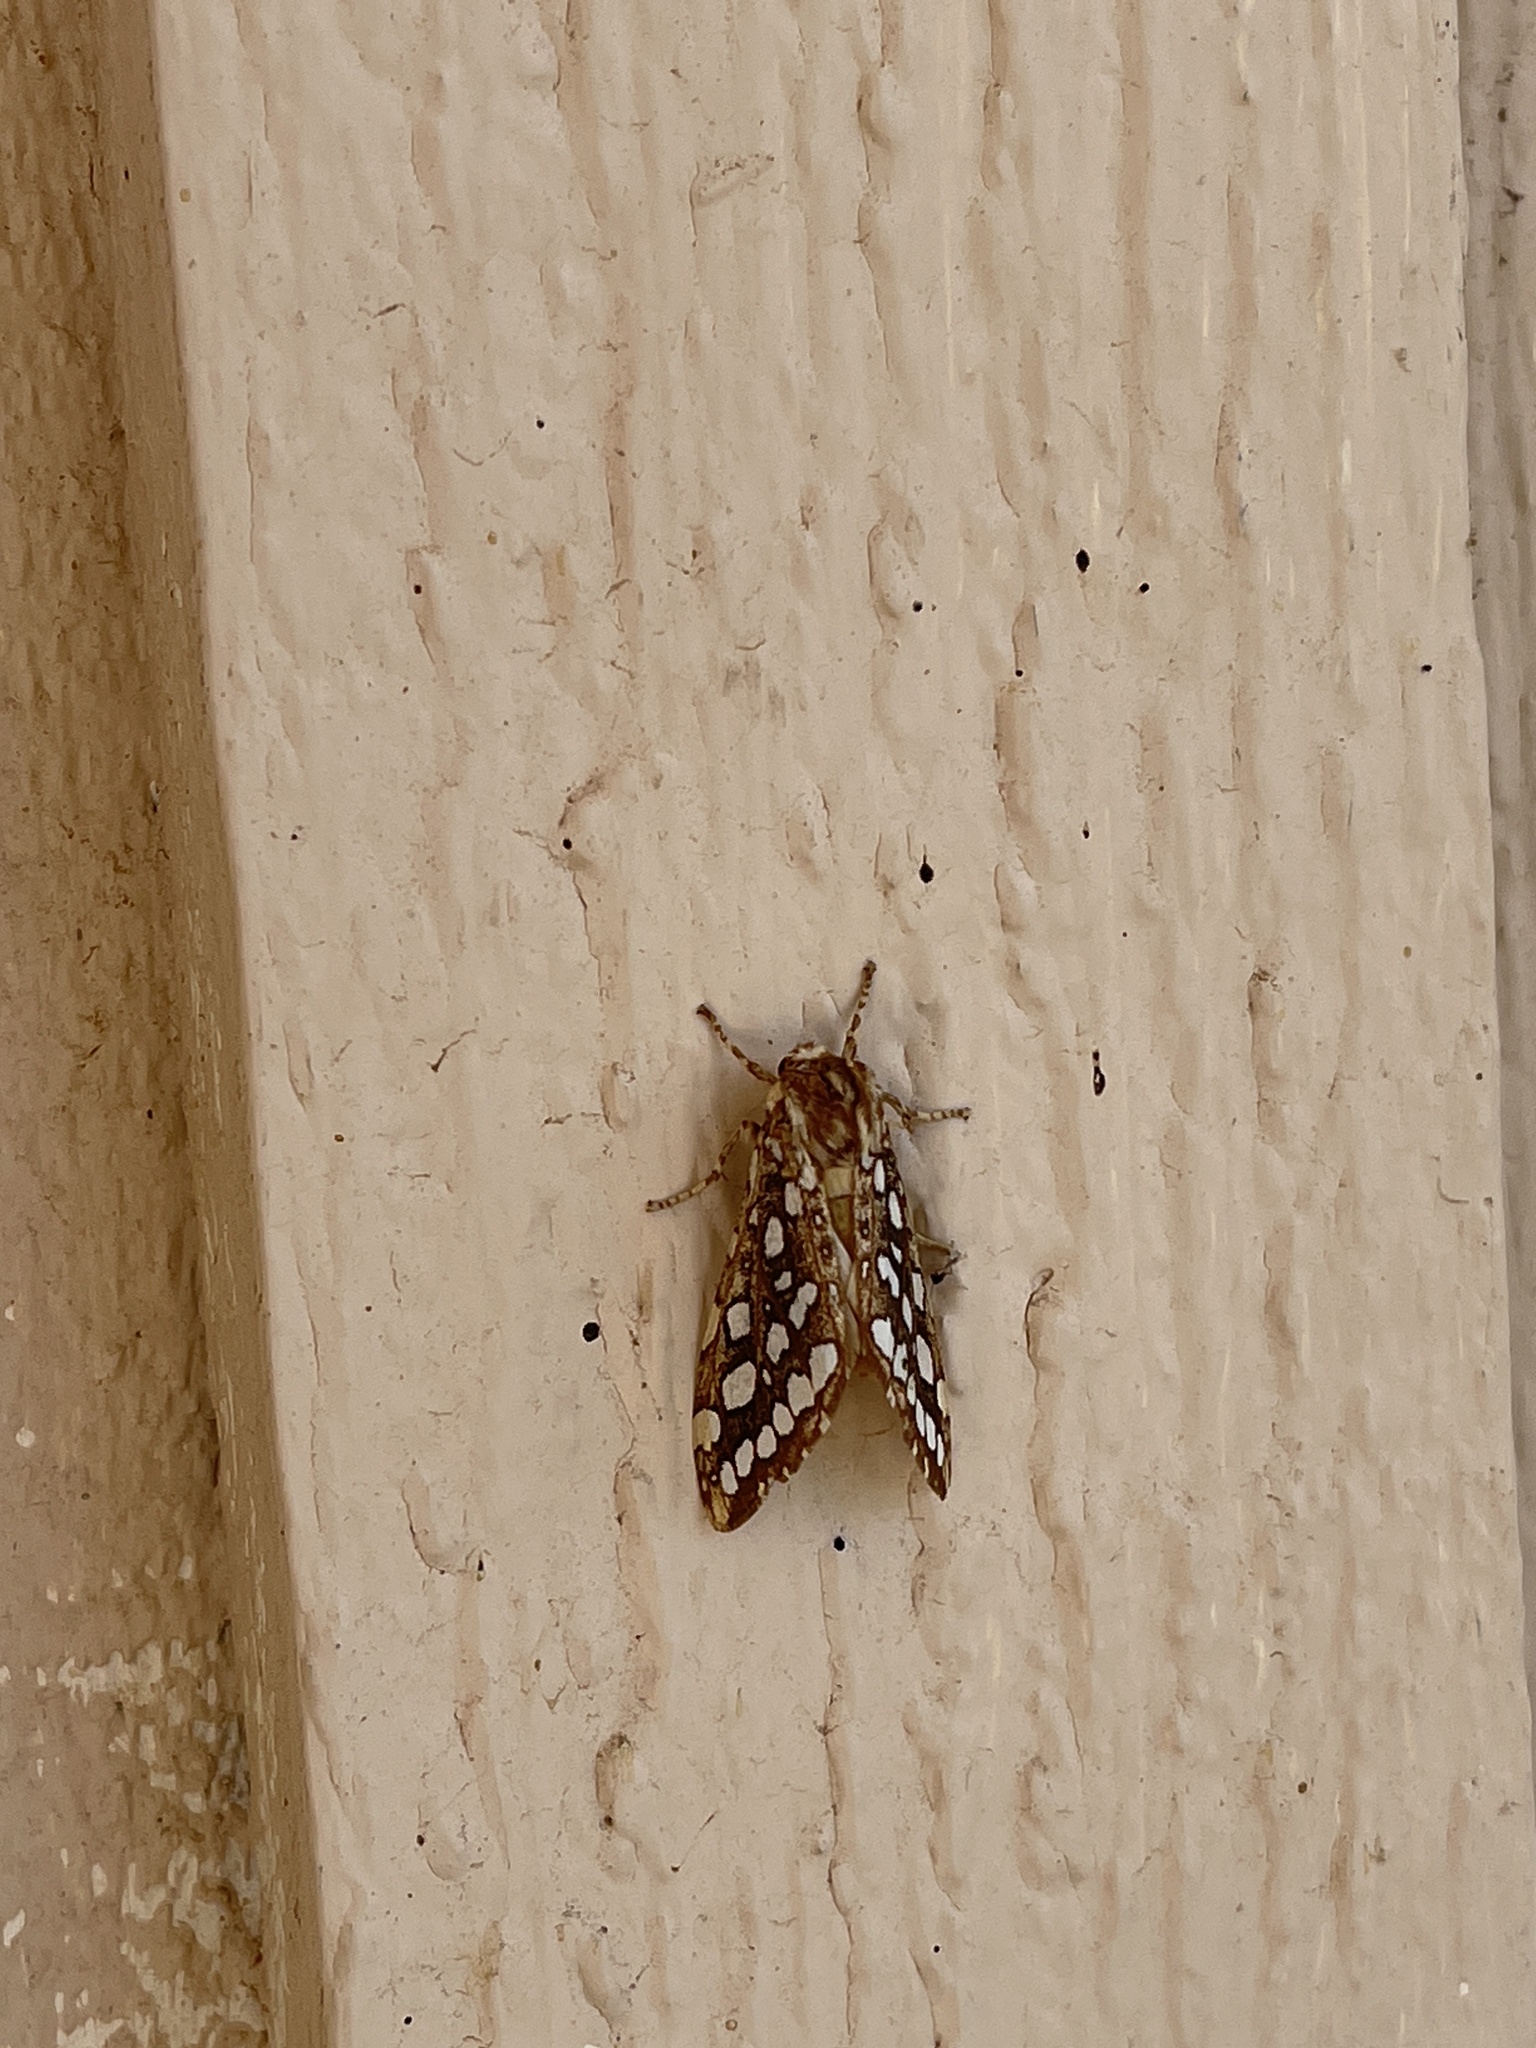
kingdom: Animalia
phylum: Arthropoda
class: Insecta
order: Lepidoptera
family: Erebidae
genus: Lophocampa
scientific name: Lophocampa argentata
